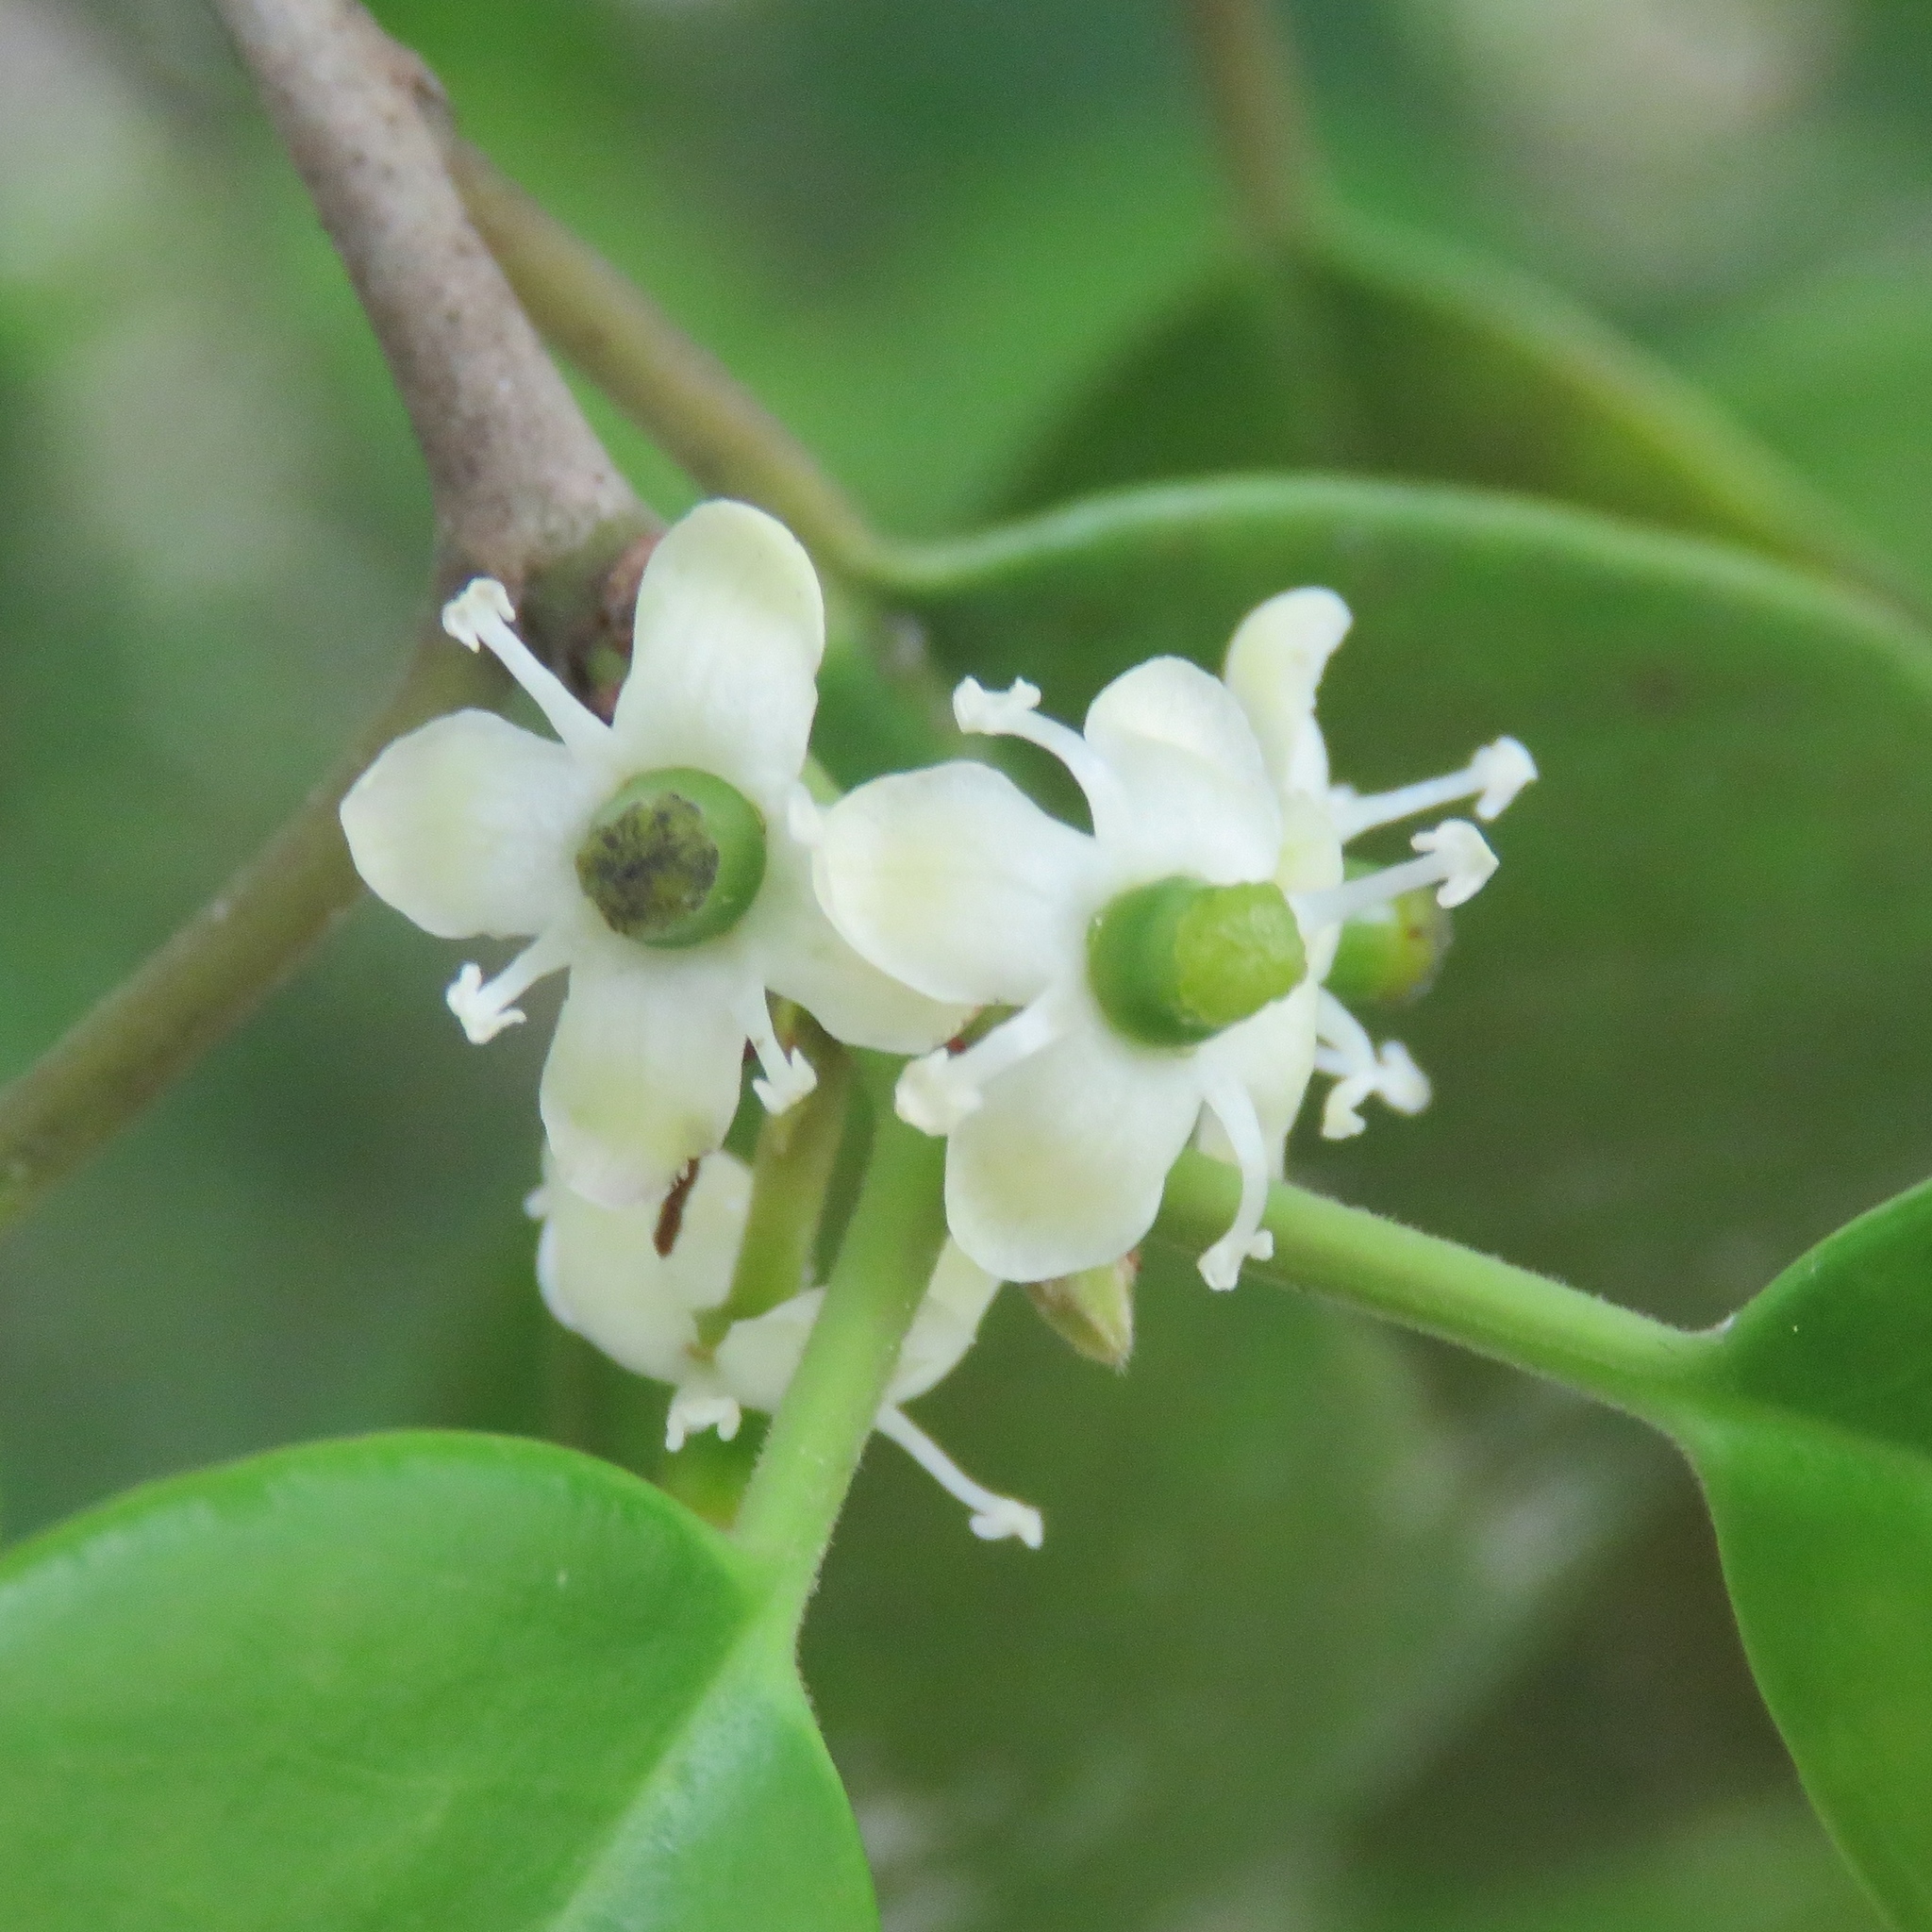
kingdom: Plantae
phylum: Tracheophyta
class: Magnoliopsida
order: Aquifoliales
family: Aquifoliaceae
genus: Ilex
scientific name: Ilex opaca
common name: American holly
